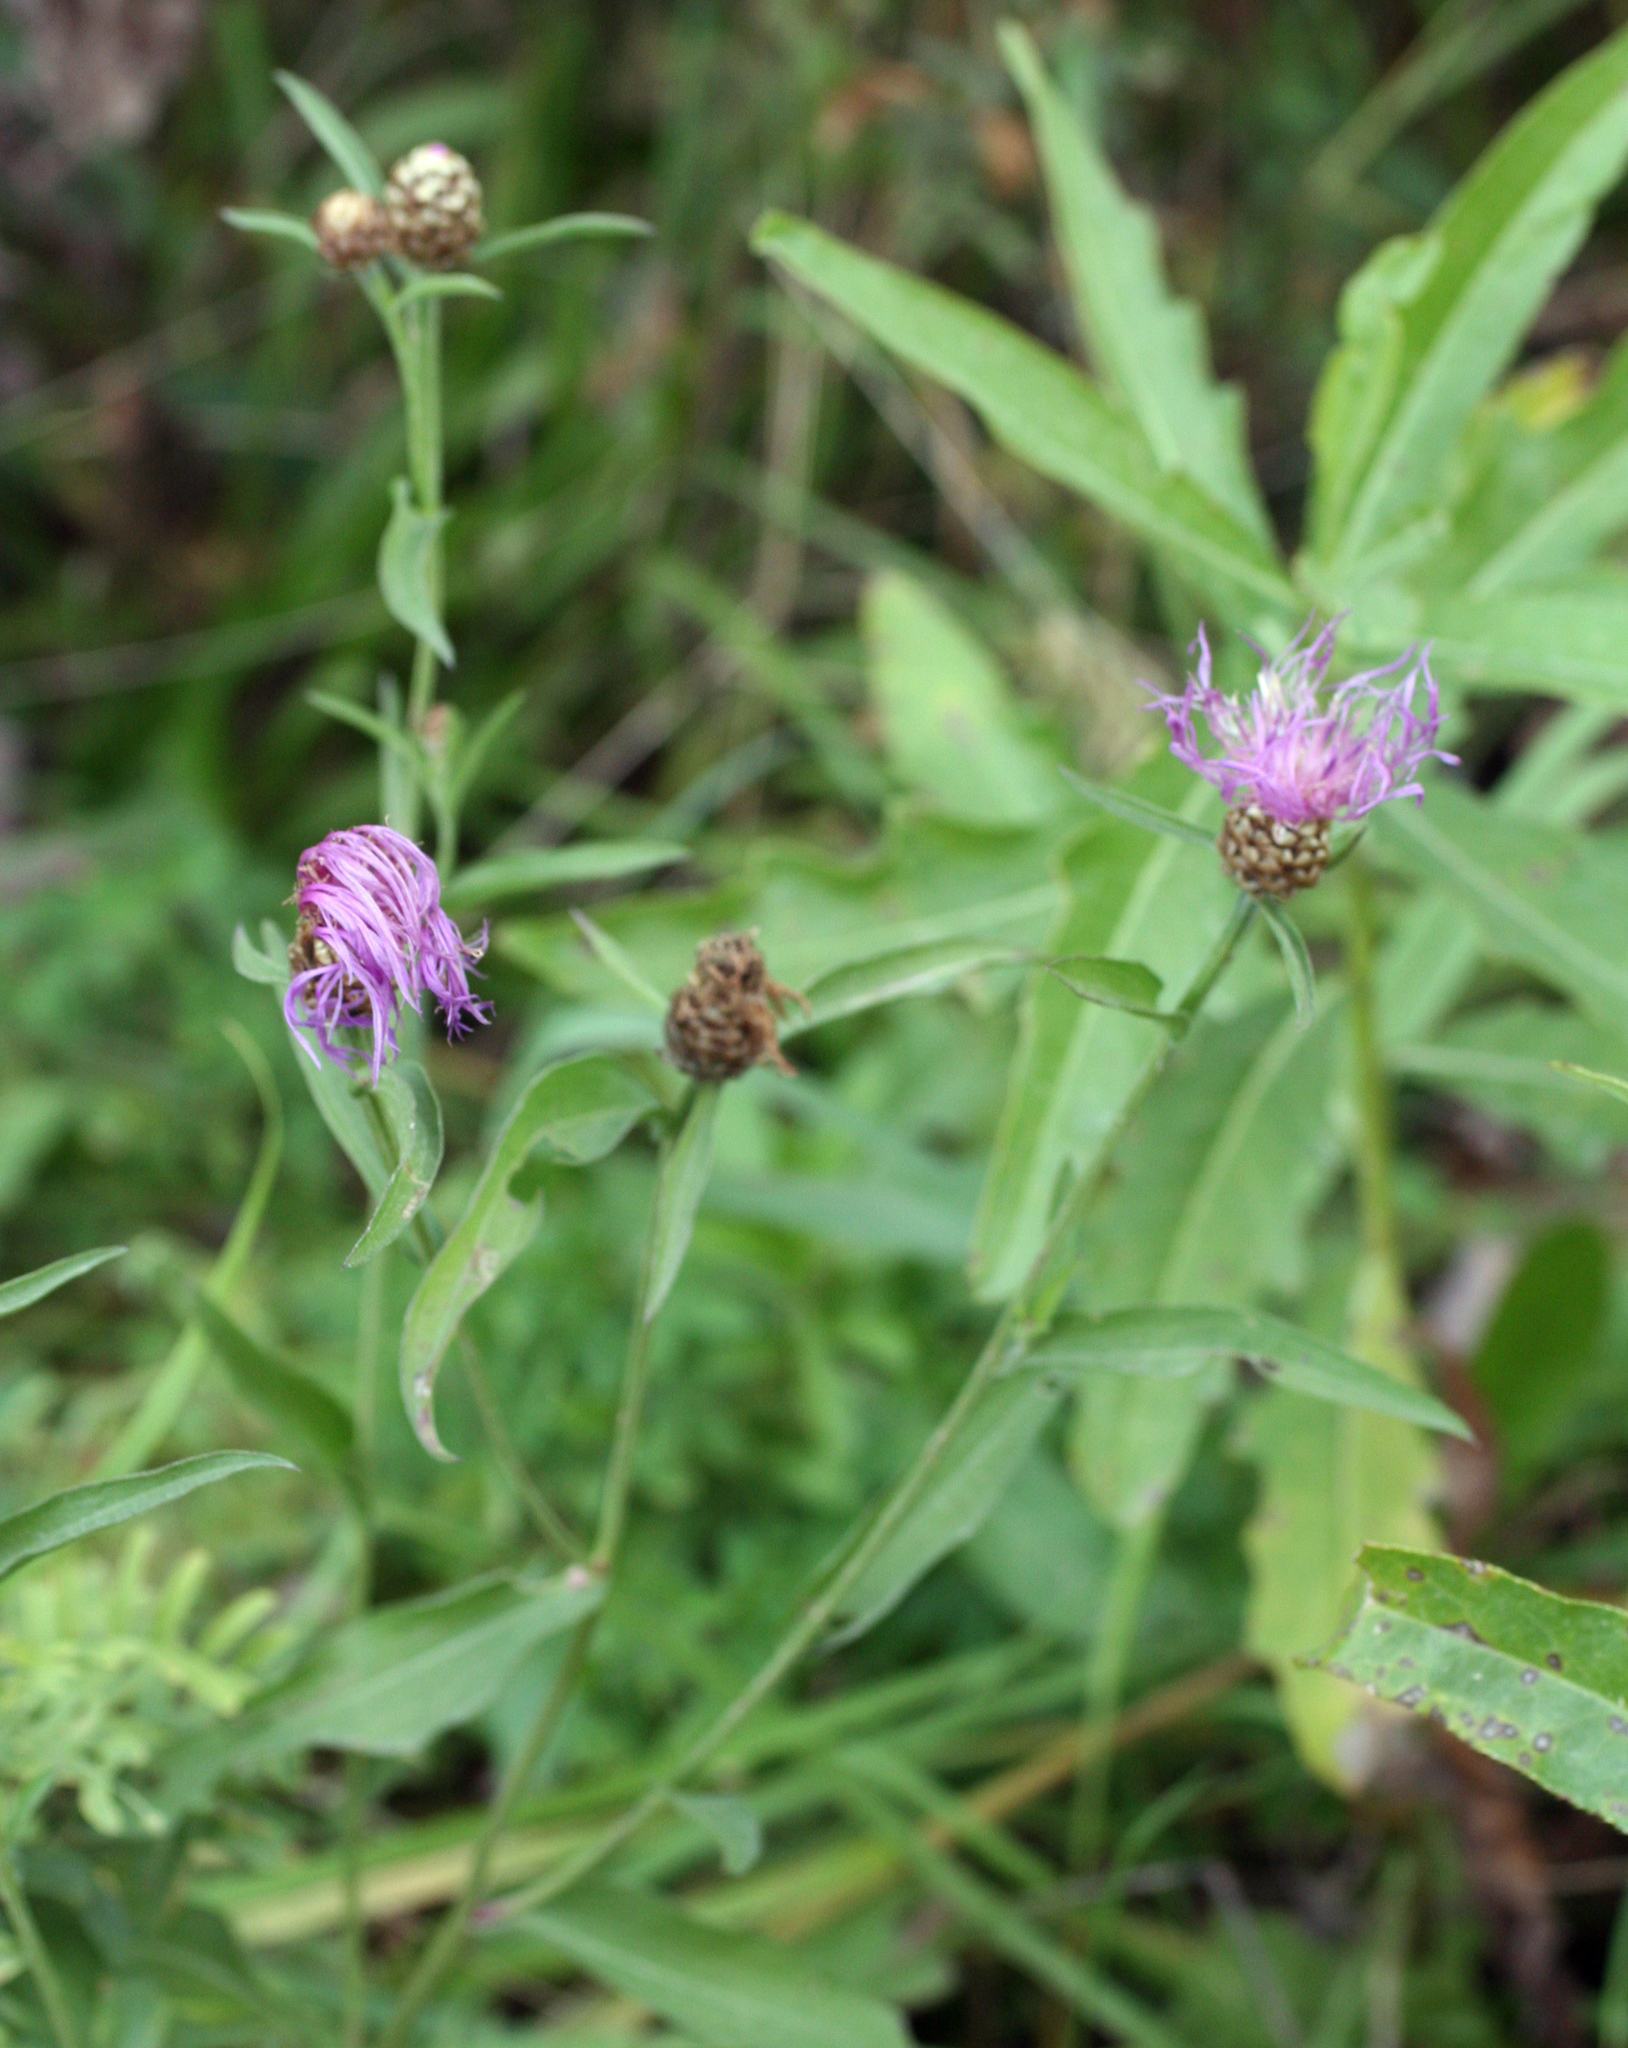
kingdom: Plantae
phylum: Tracheophyta
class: Magnoliopsida
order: Asterales
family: Asteraceae
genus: Centaurea
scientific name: Centaurea jacea
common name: Brown knapweed
